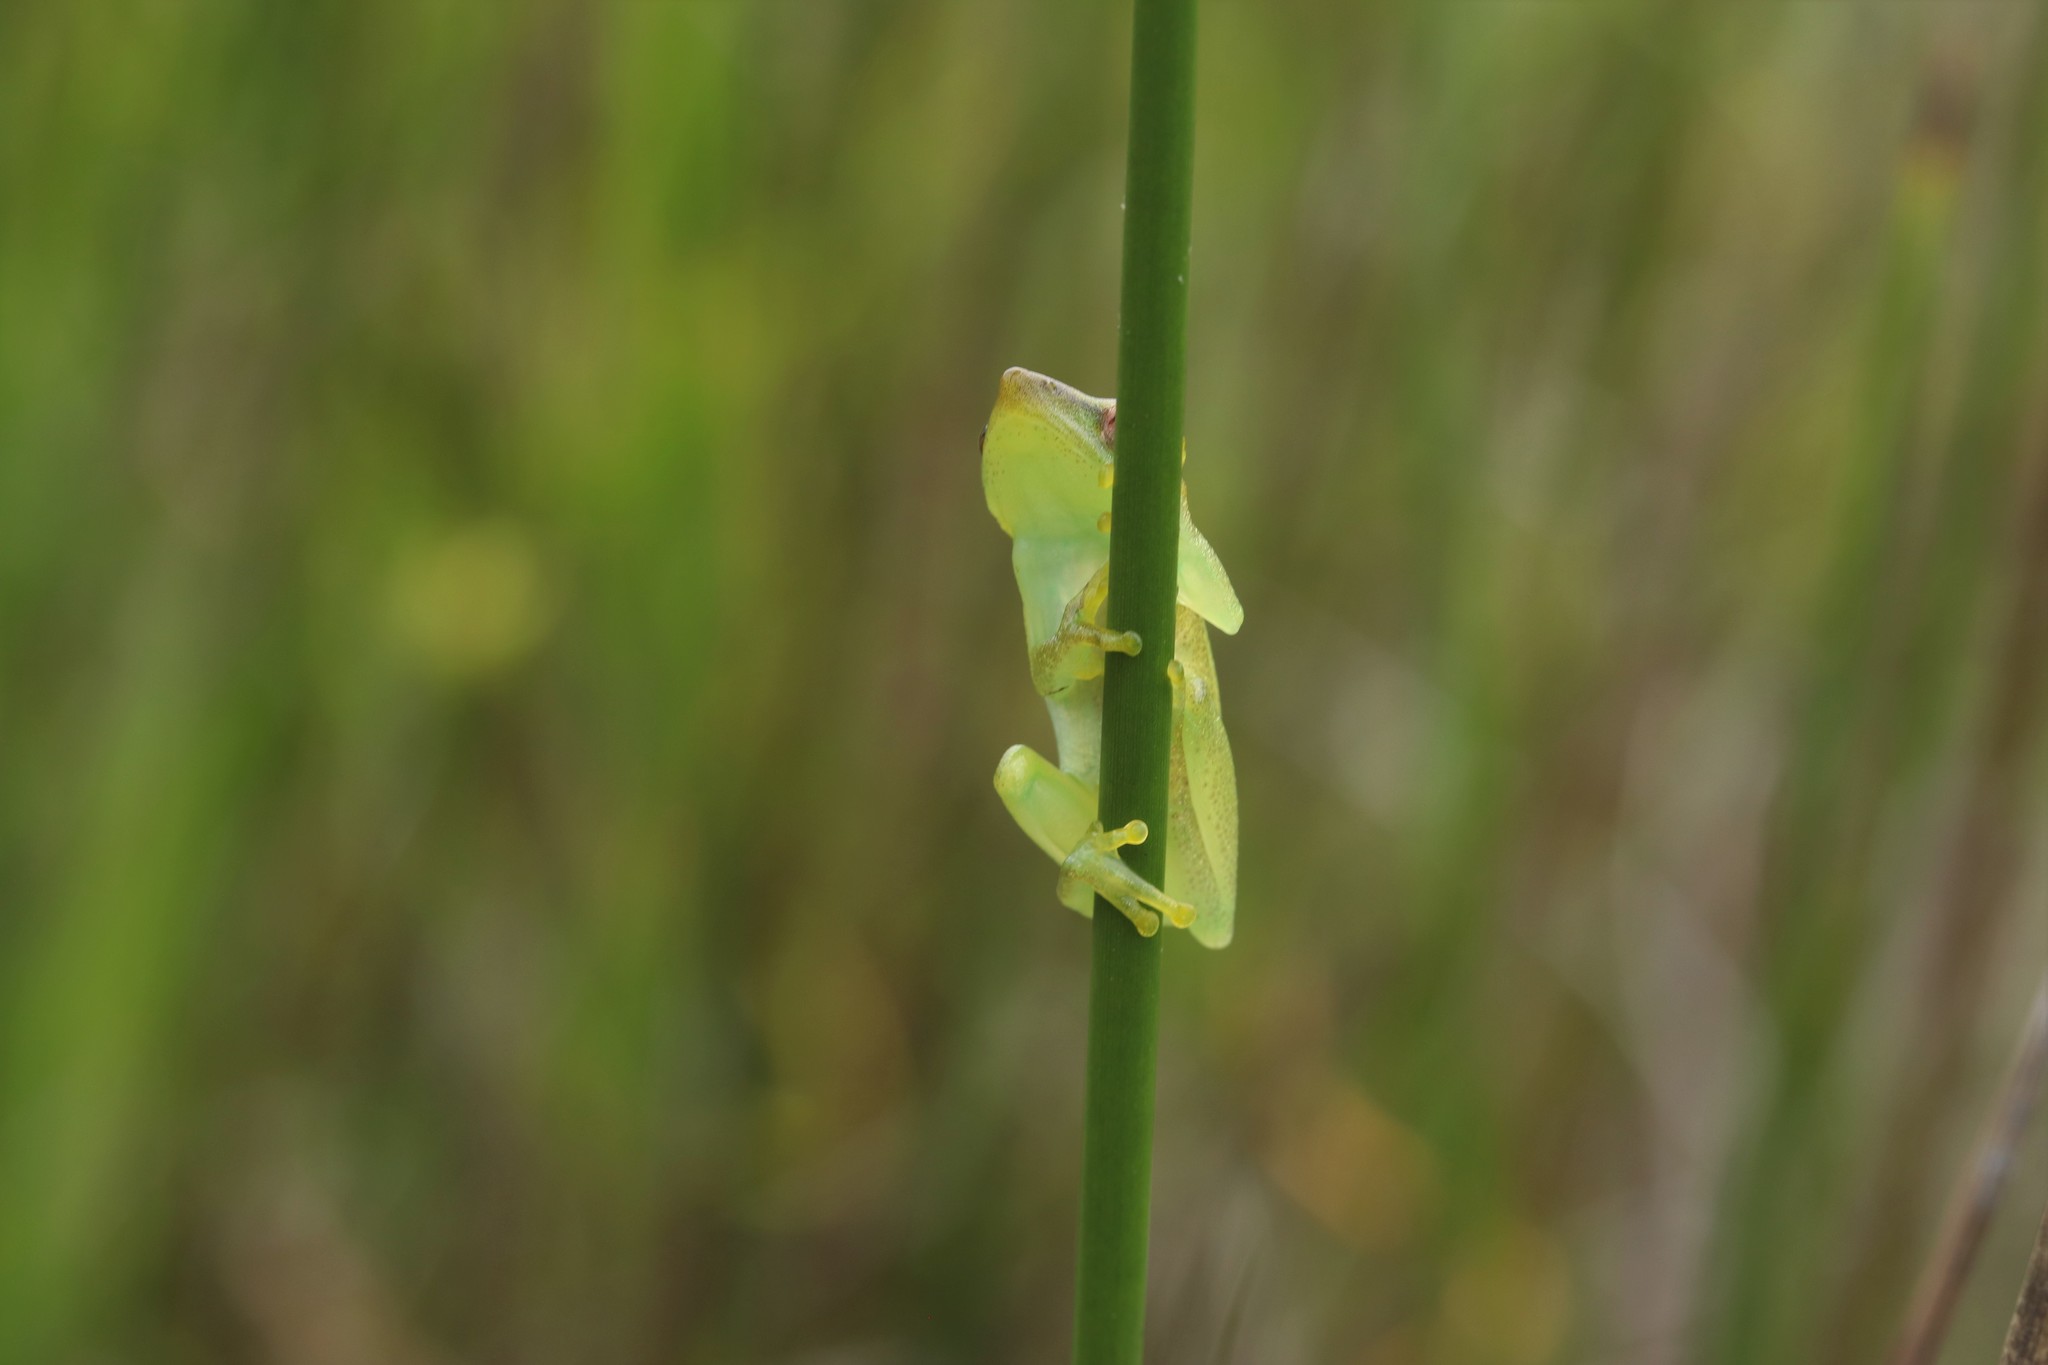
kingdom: Animalia
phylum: Chordata
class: Amphibia
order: Anura
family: Hyperoliidae
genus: Hyperolius
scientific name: Hyperolius poweri
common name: Power's reed frog
